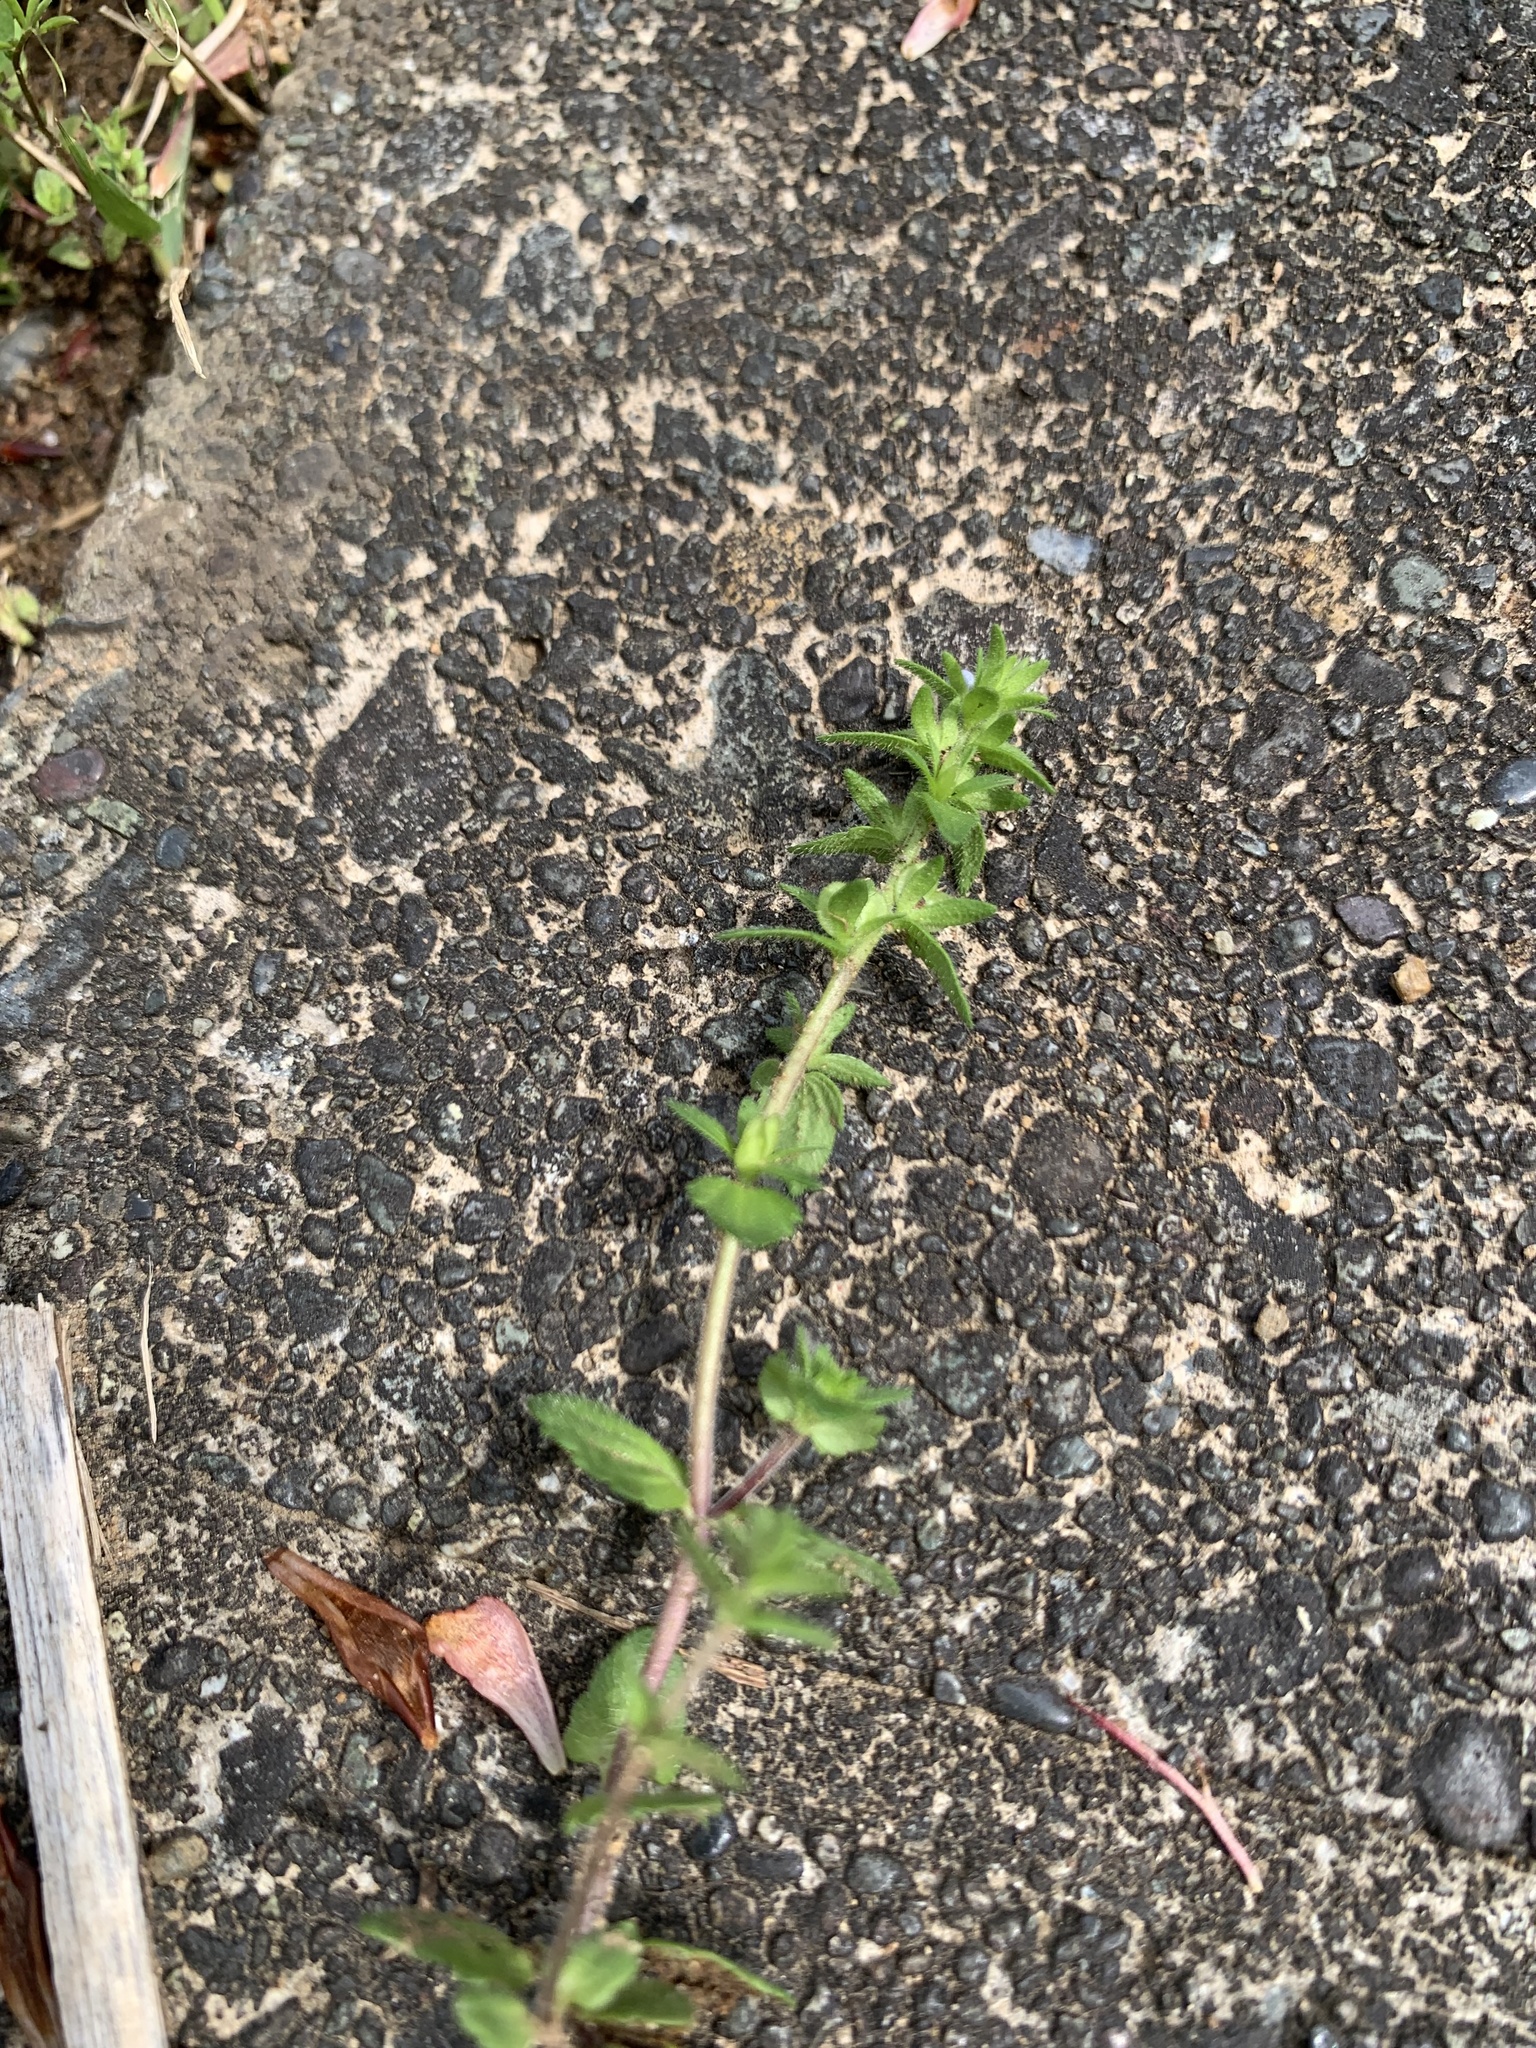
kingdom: Plantae
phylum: Tracheophyta
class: Magnoliopsida
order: Lamiales
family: Plantaginaceae
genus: Veronica
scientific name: Veronica arvensis
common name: Corn speedwell
